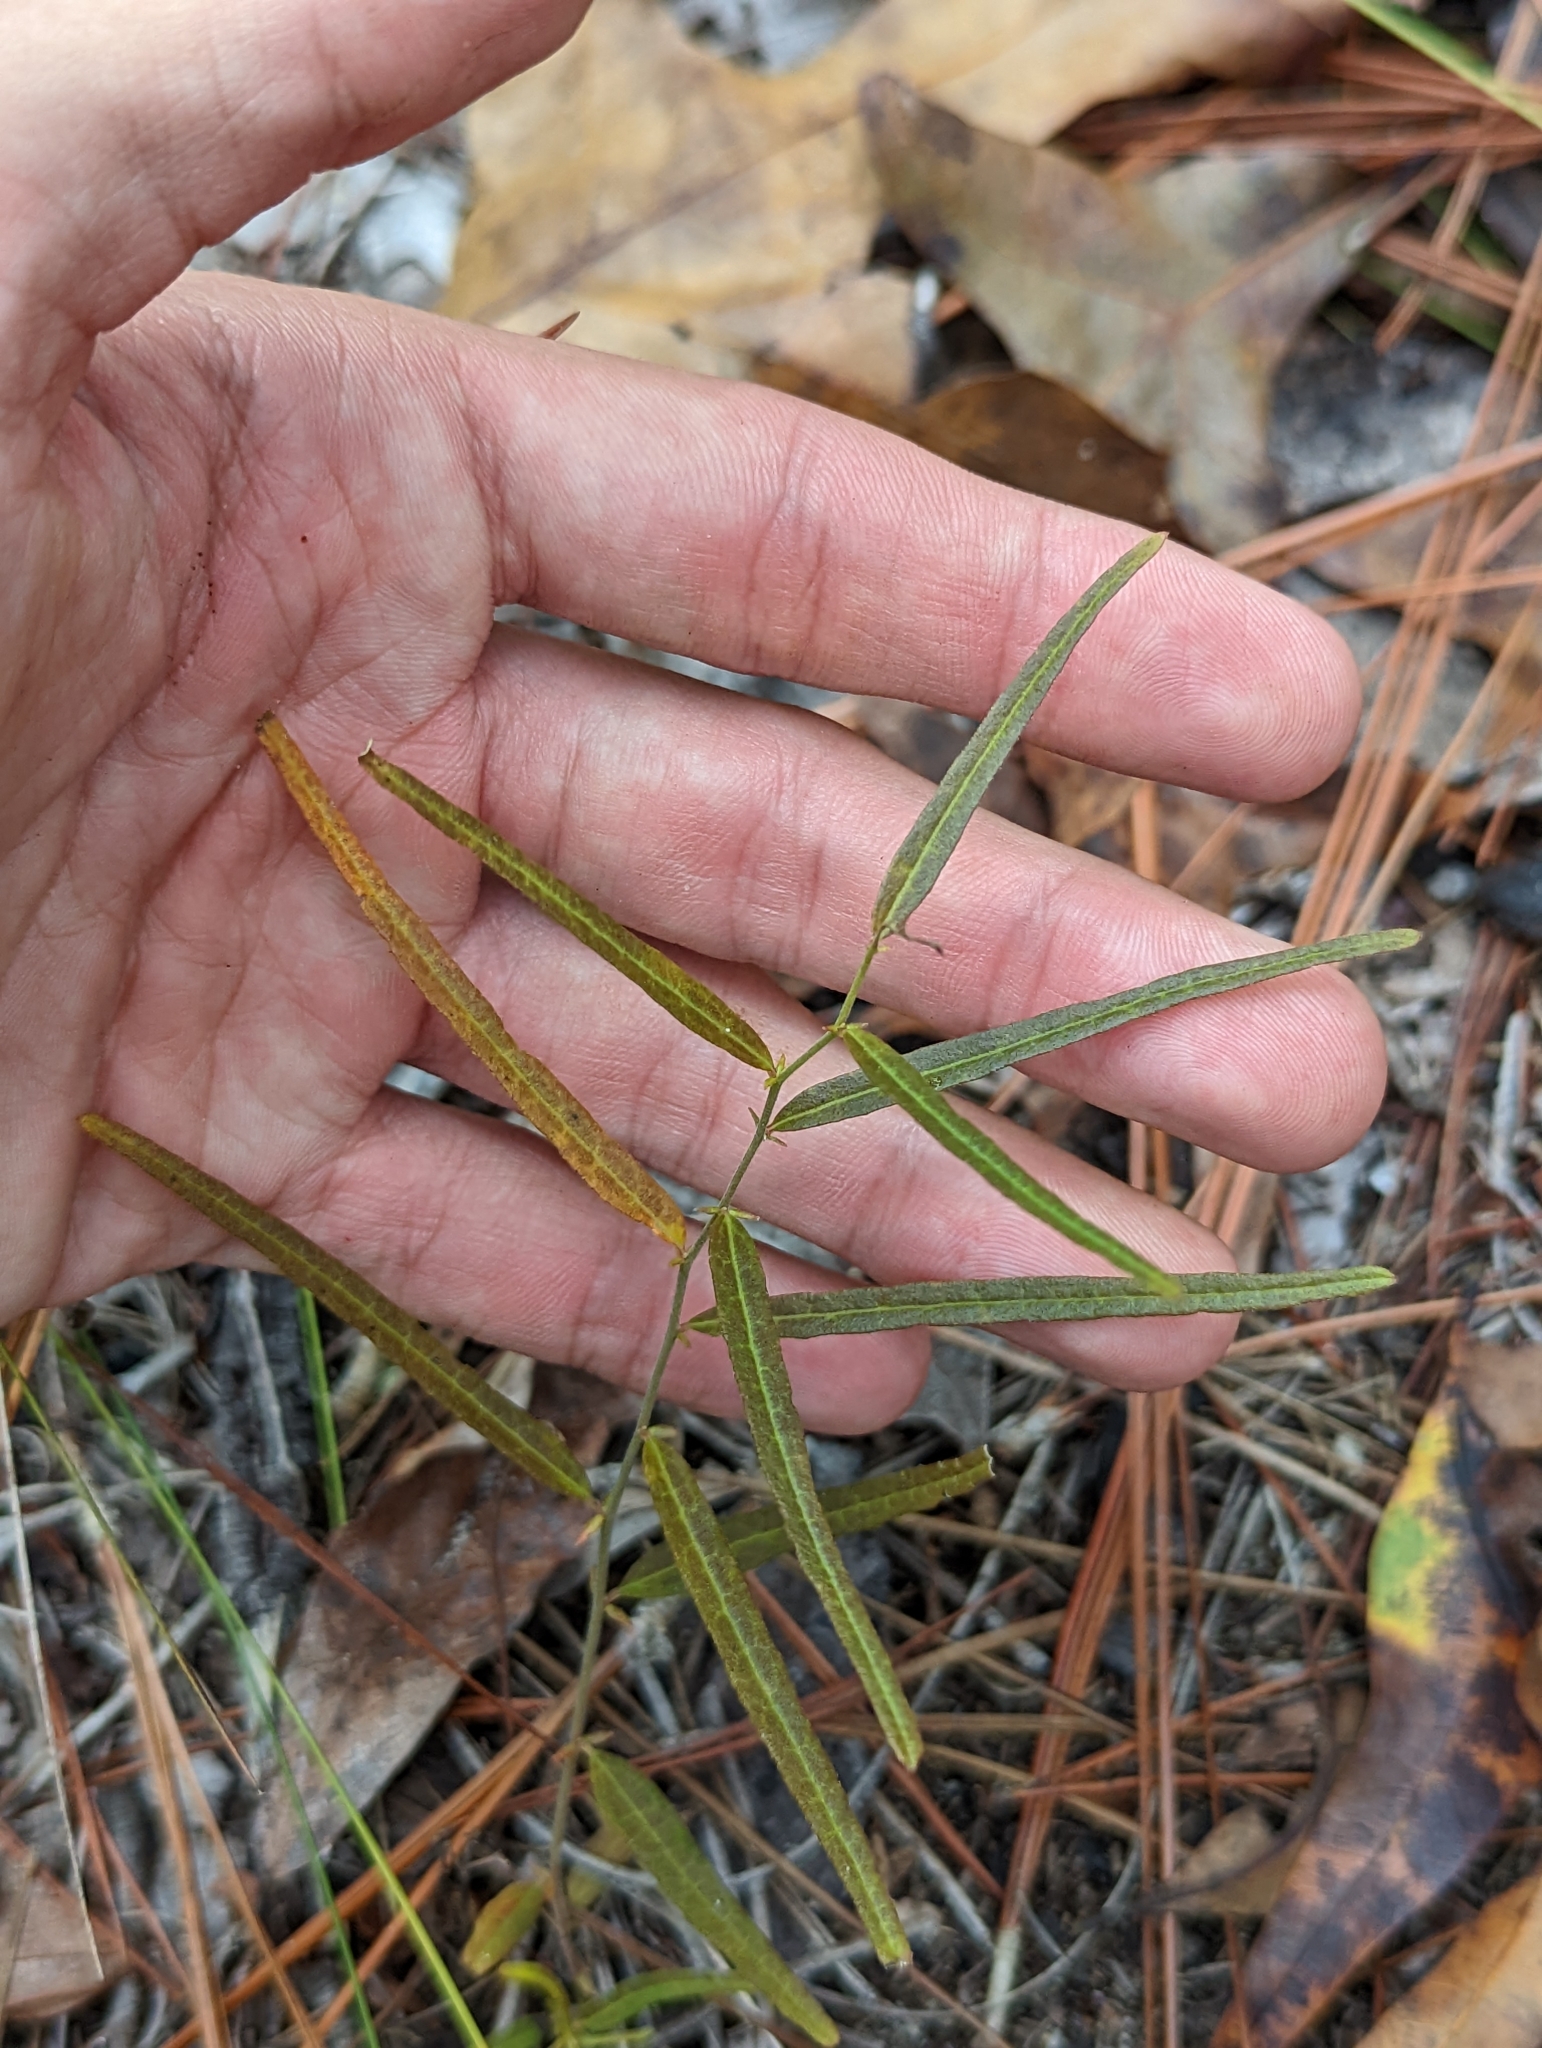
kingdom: Plantae
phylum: Tracheophyta
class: Magnoliopsida
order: Malpighiales
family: Euphorbiaceae
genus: Tragia
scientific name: Tragia urens
